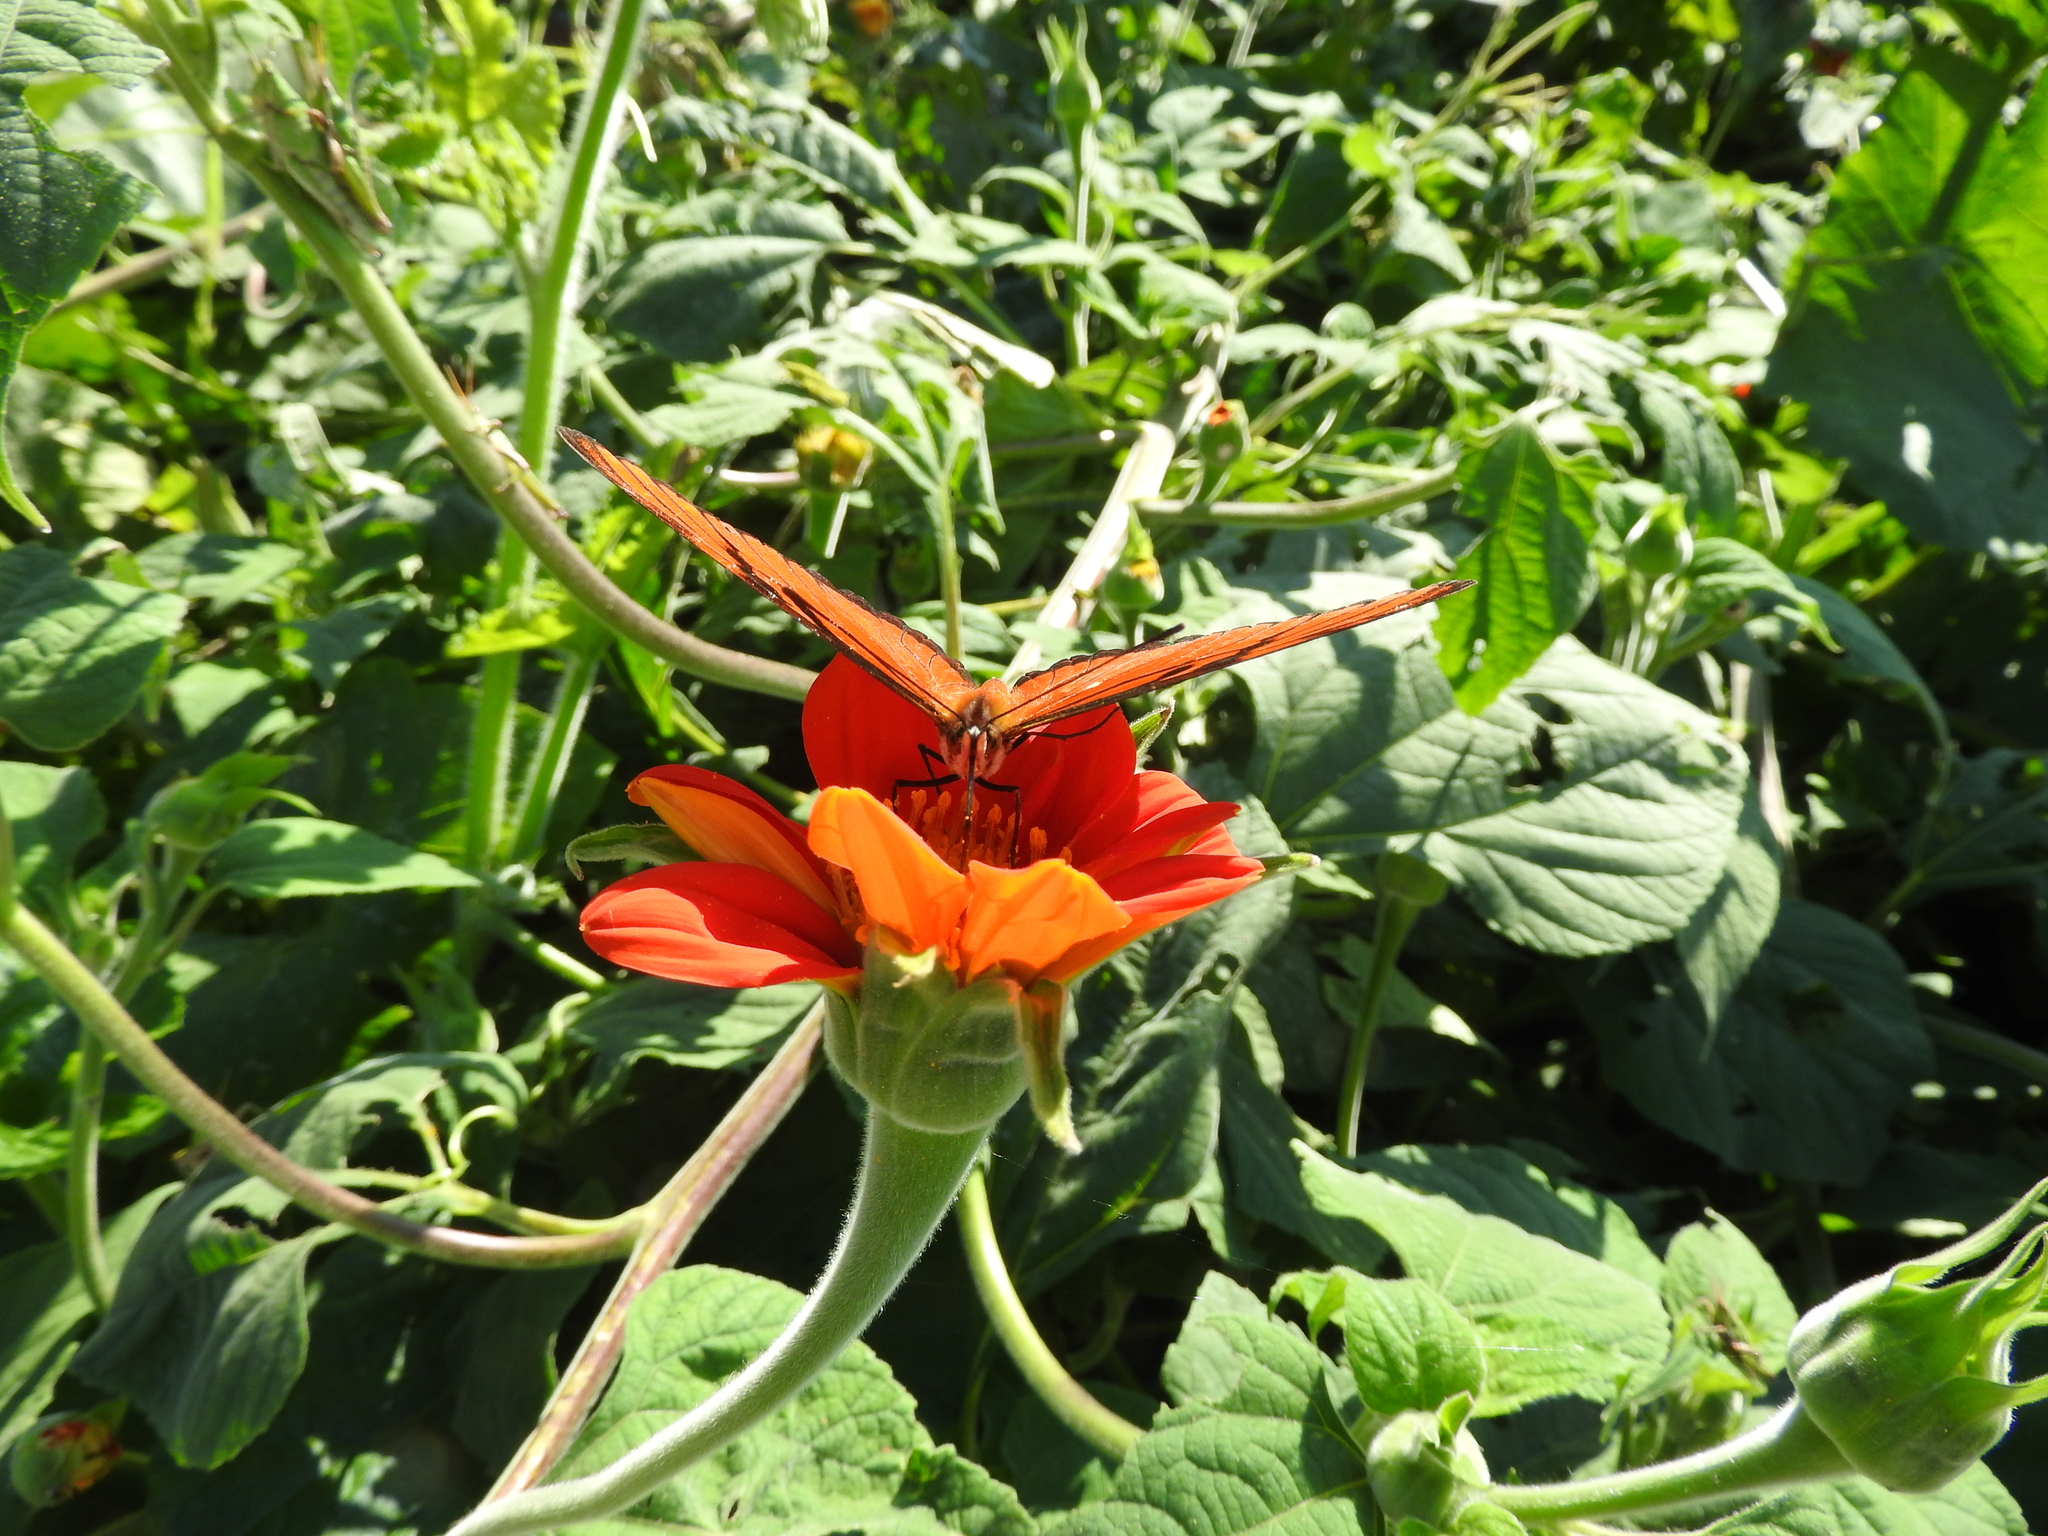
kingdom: Animalia
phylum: Arthropoda
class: Insecta
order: Lepidoptera
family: Nymphalidae
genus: Dione
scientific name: Dione juno
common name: Juno silverspot
